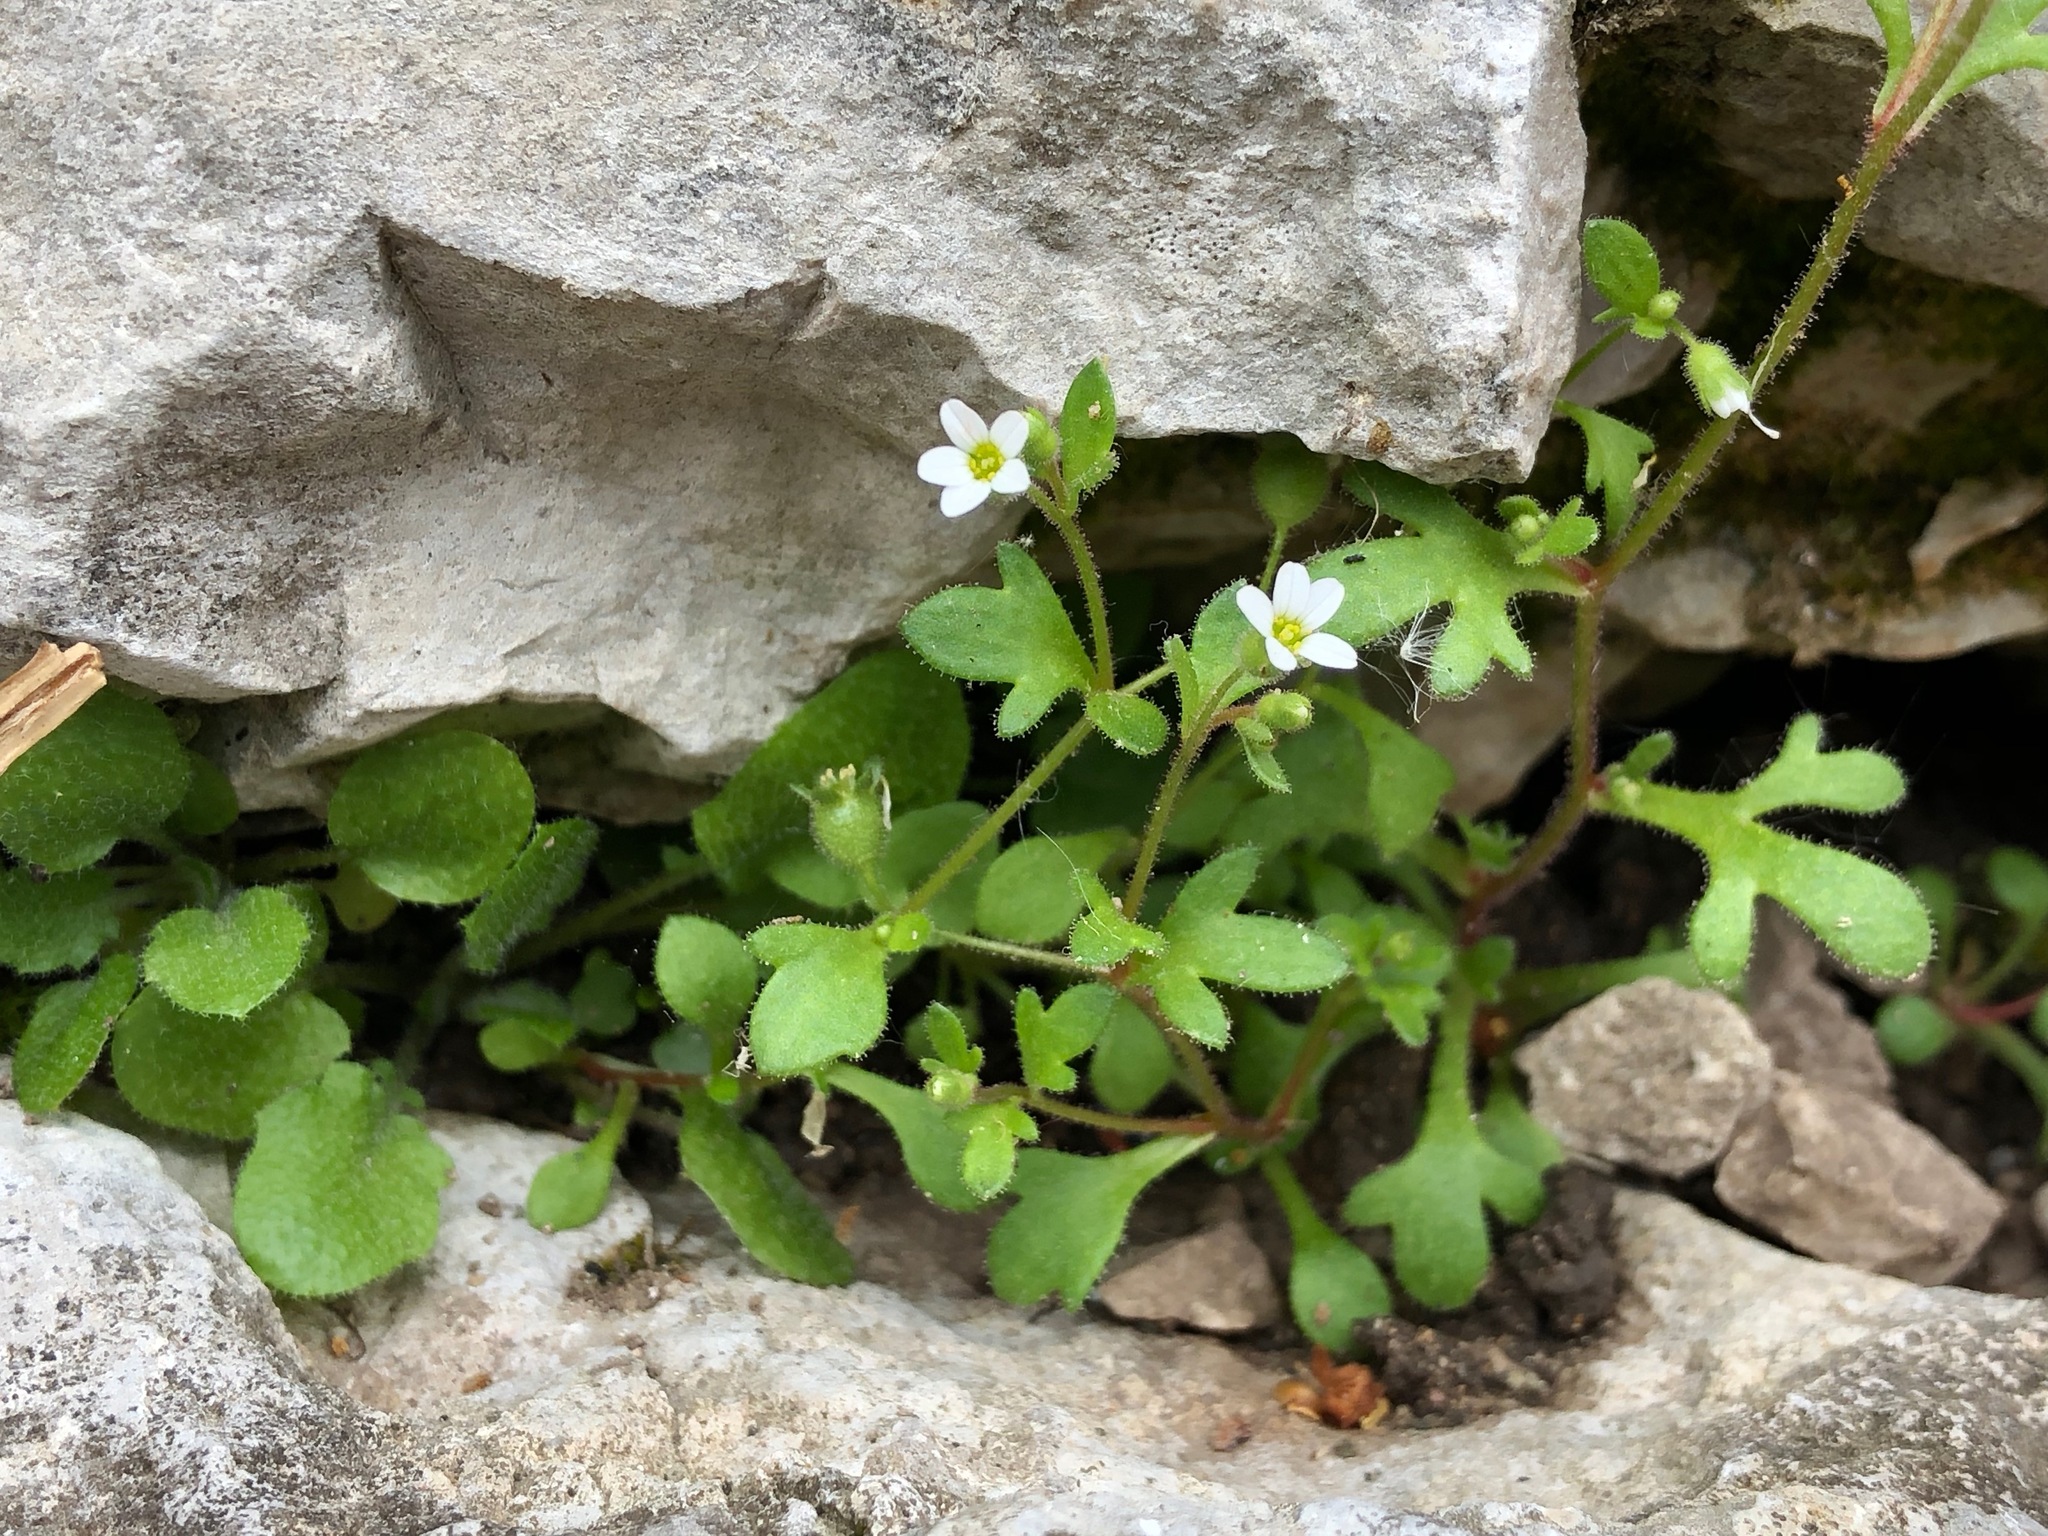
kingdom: Plantae
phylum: Tracheophyta
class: Magnoliopsida
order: Saxifragales
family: Saxifragaceae
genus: Saxifraga
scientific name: Saxifraga tridactylites
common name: Rue-leaved saxifrage
